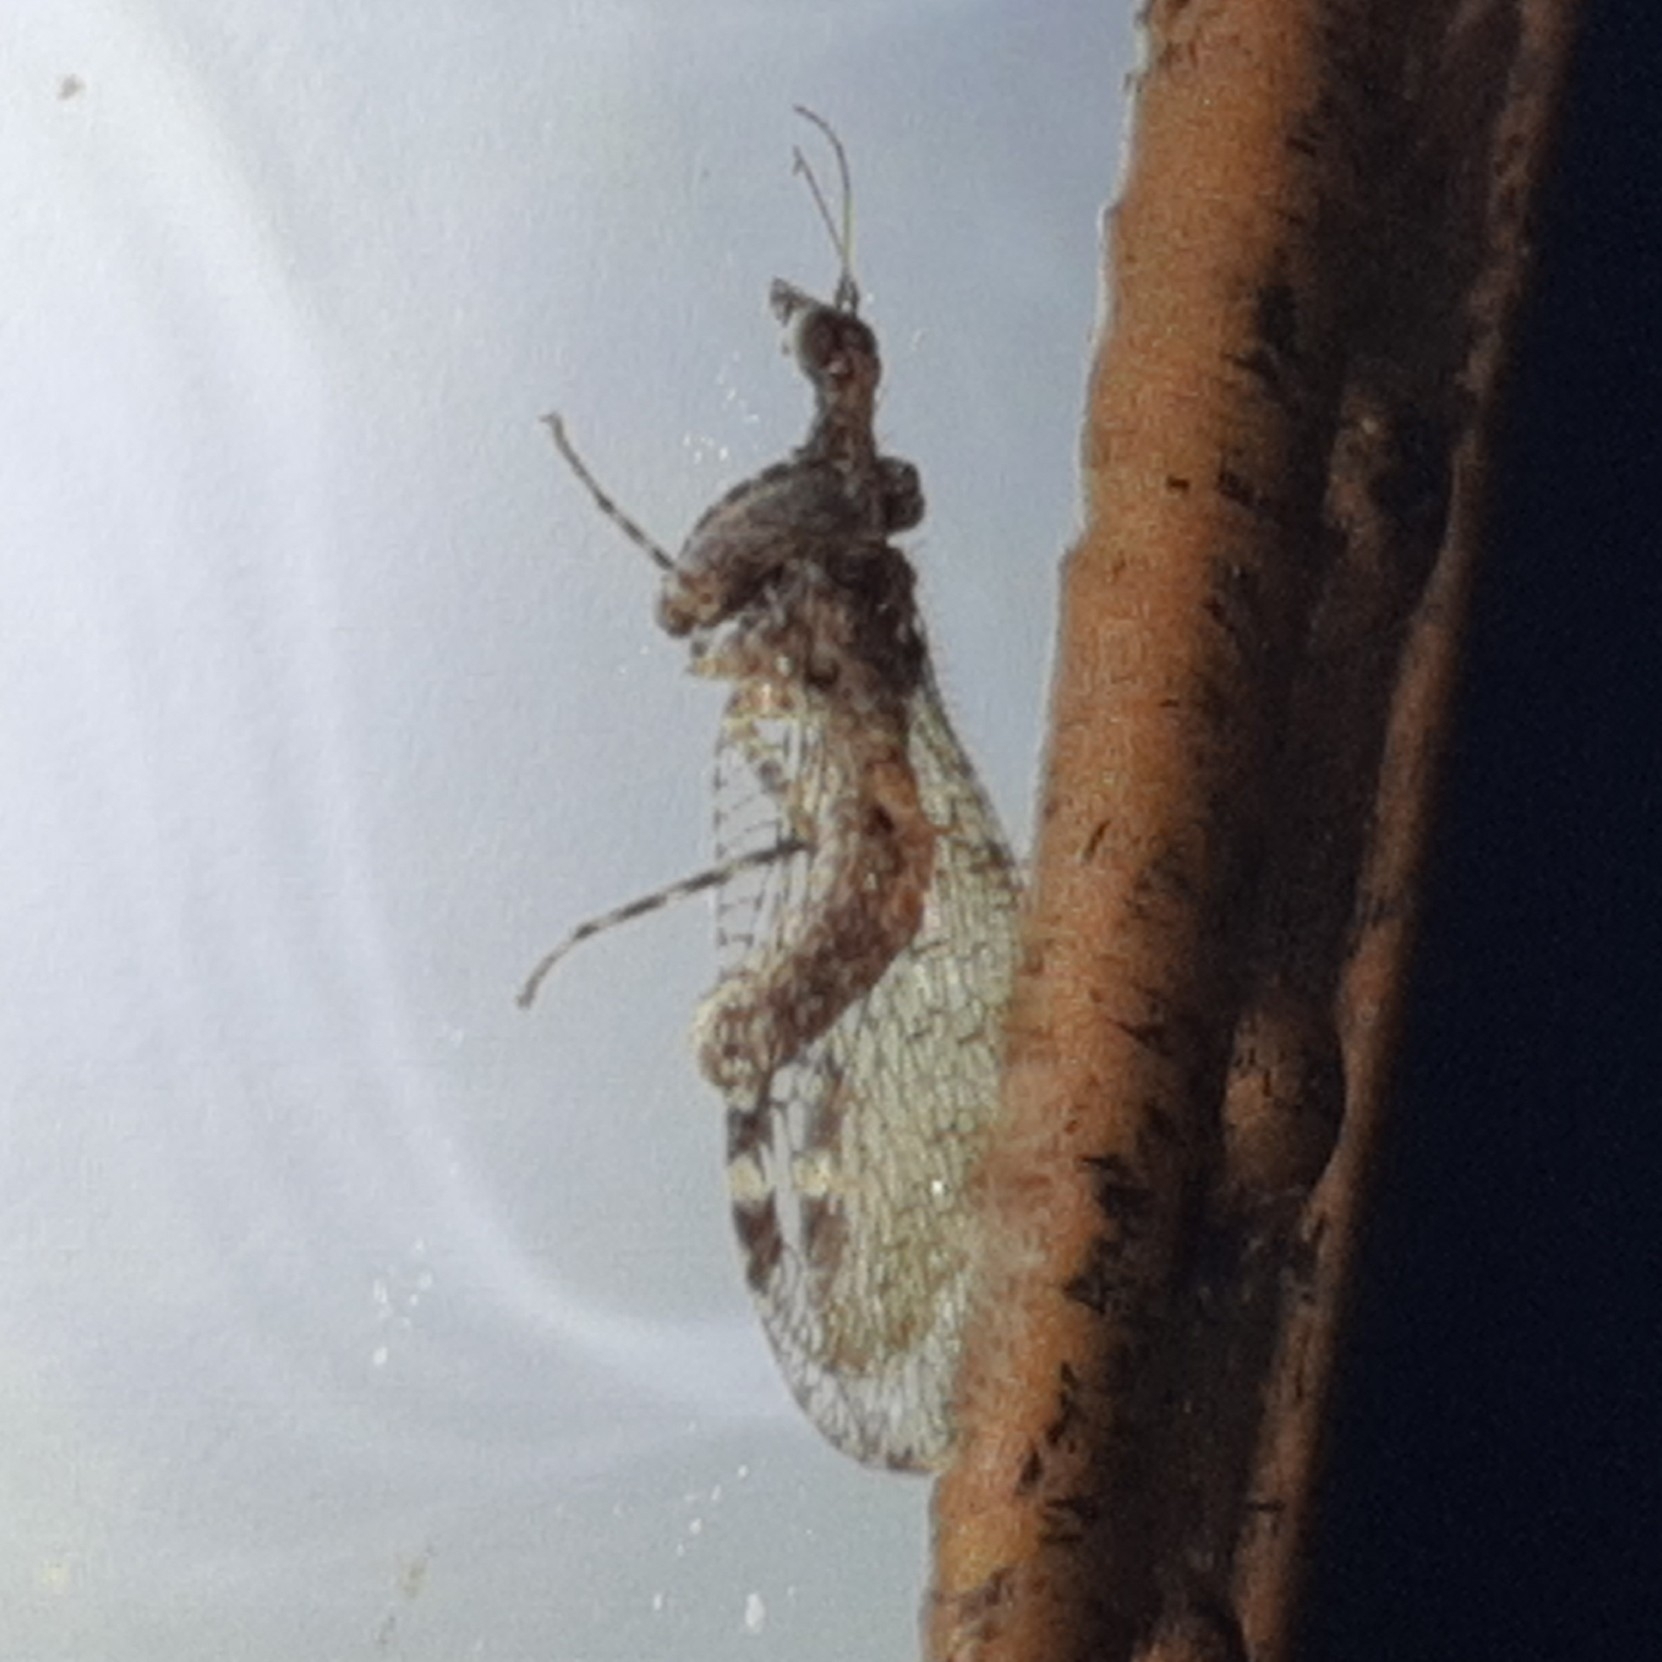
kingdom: Animalia
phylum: Arthropoda
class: Insecta
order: Neuroptera
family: Mantispidae
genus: Plega
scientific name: Plega hagenella
